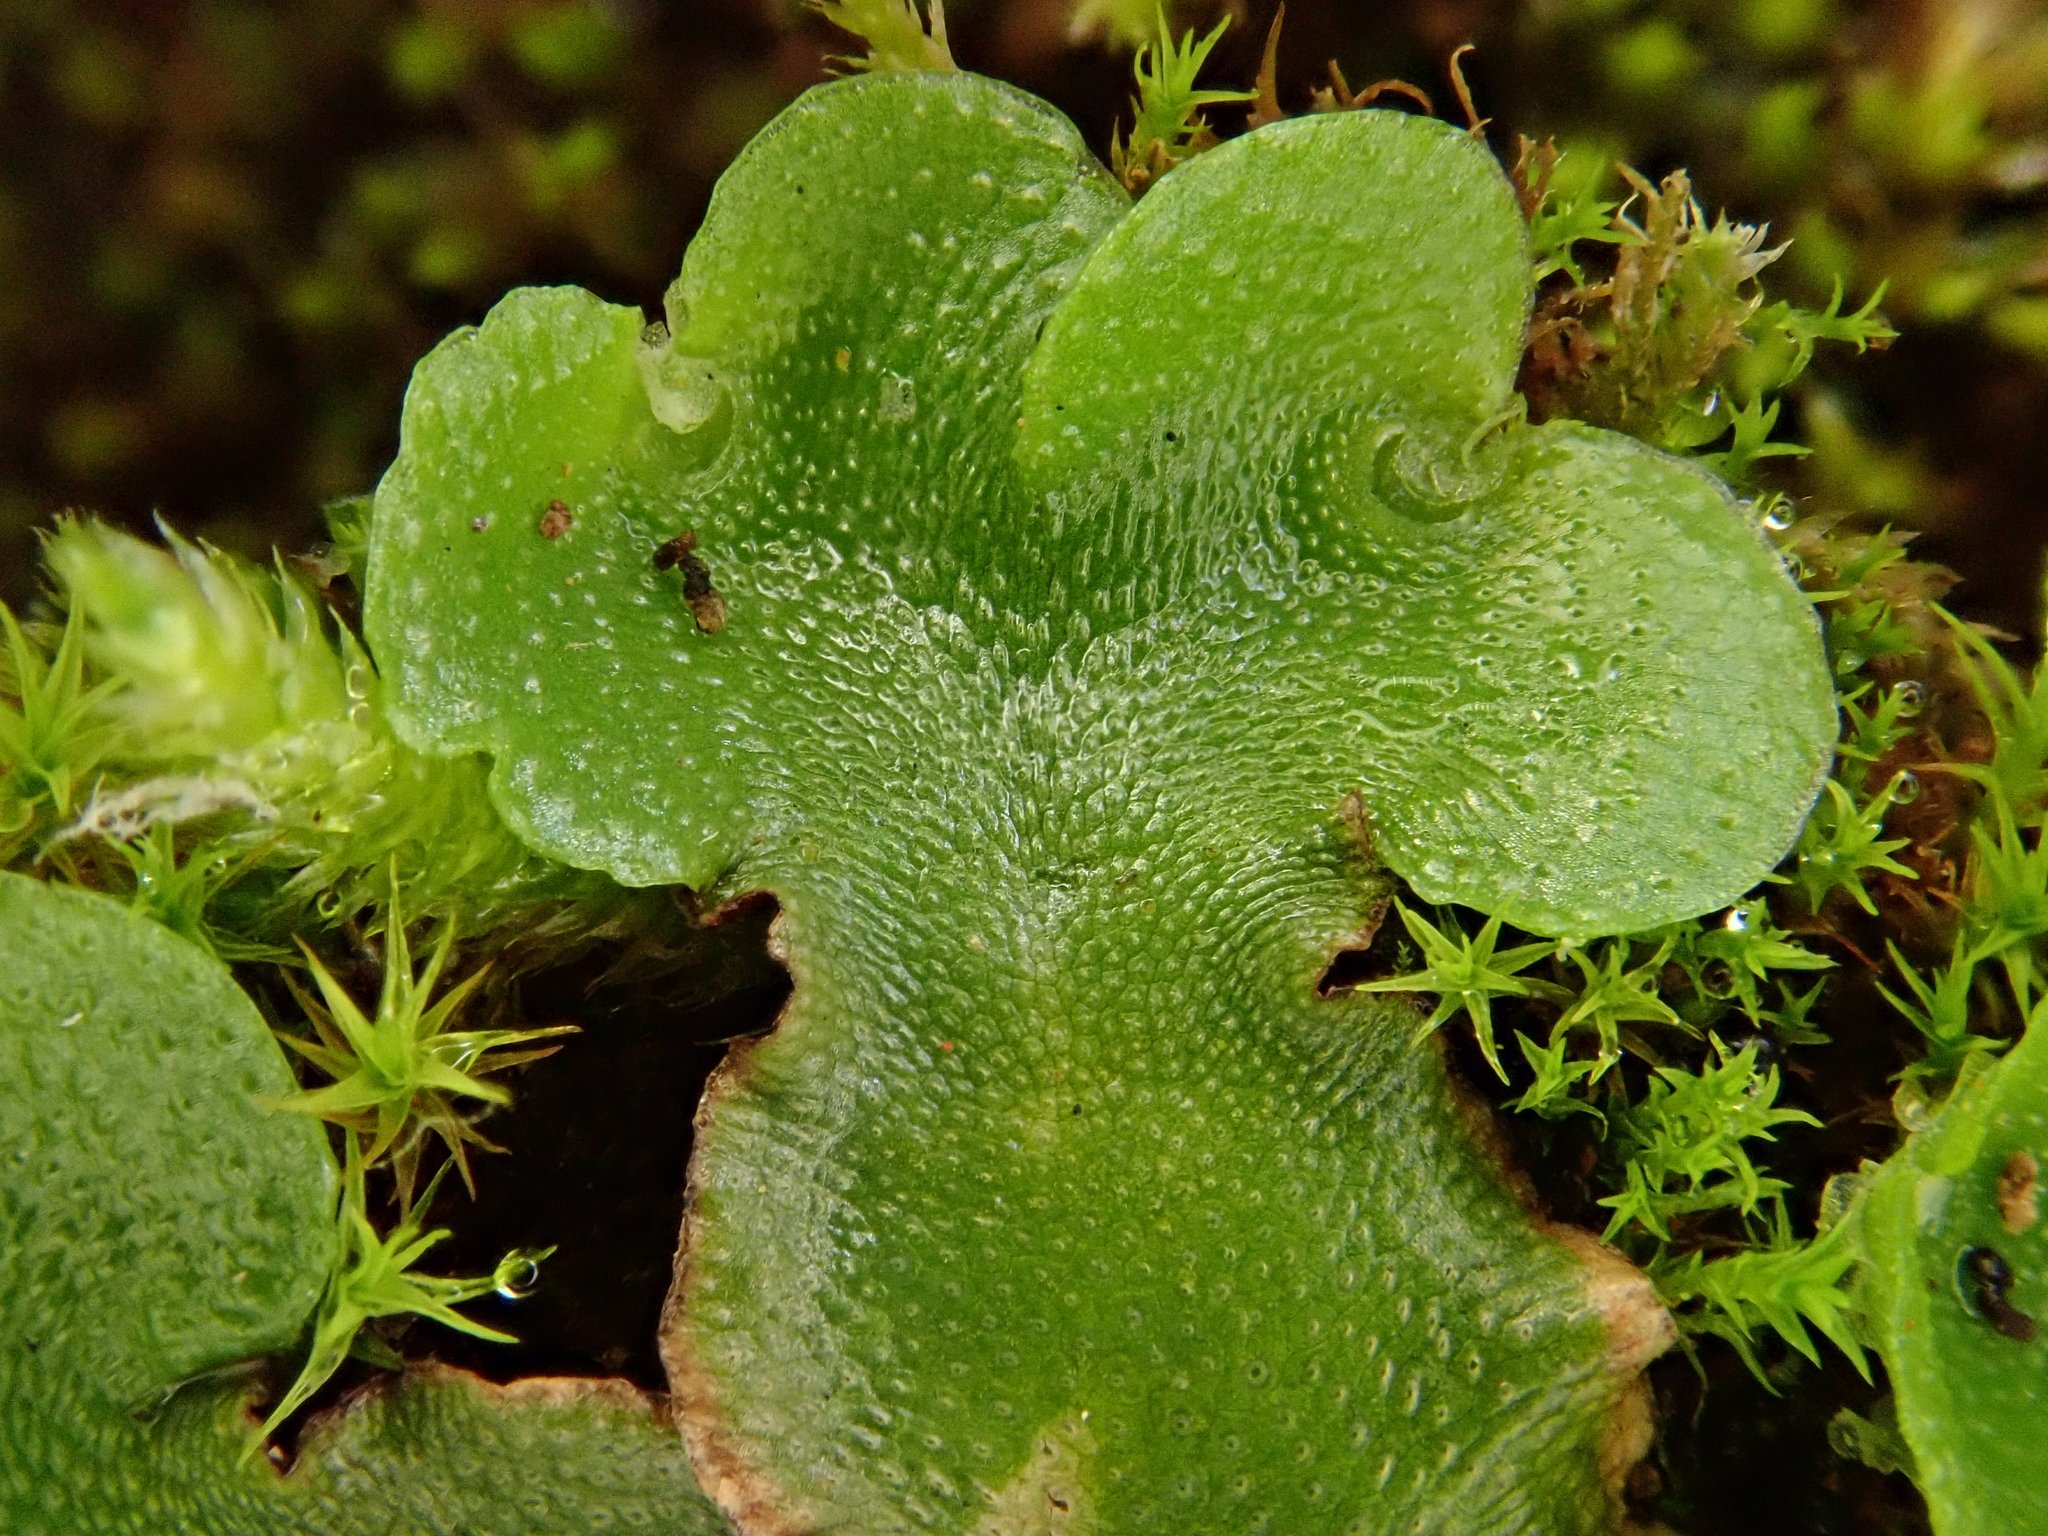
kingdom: Plantae
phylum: Marchantiophyta
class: Marchantiopsida
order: Lunulariales
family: Lunulariaceae
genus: Lunularia
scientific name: Lunularia cruciata
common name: Crescent-cup liverwort
